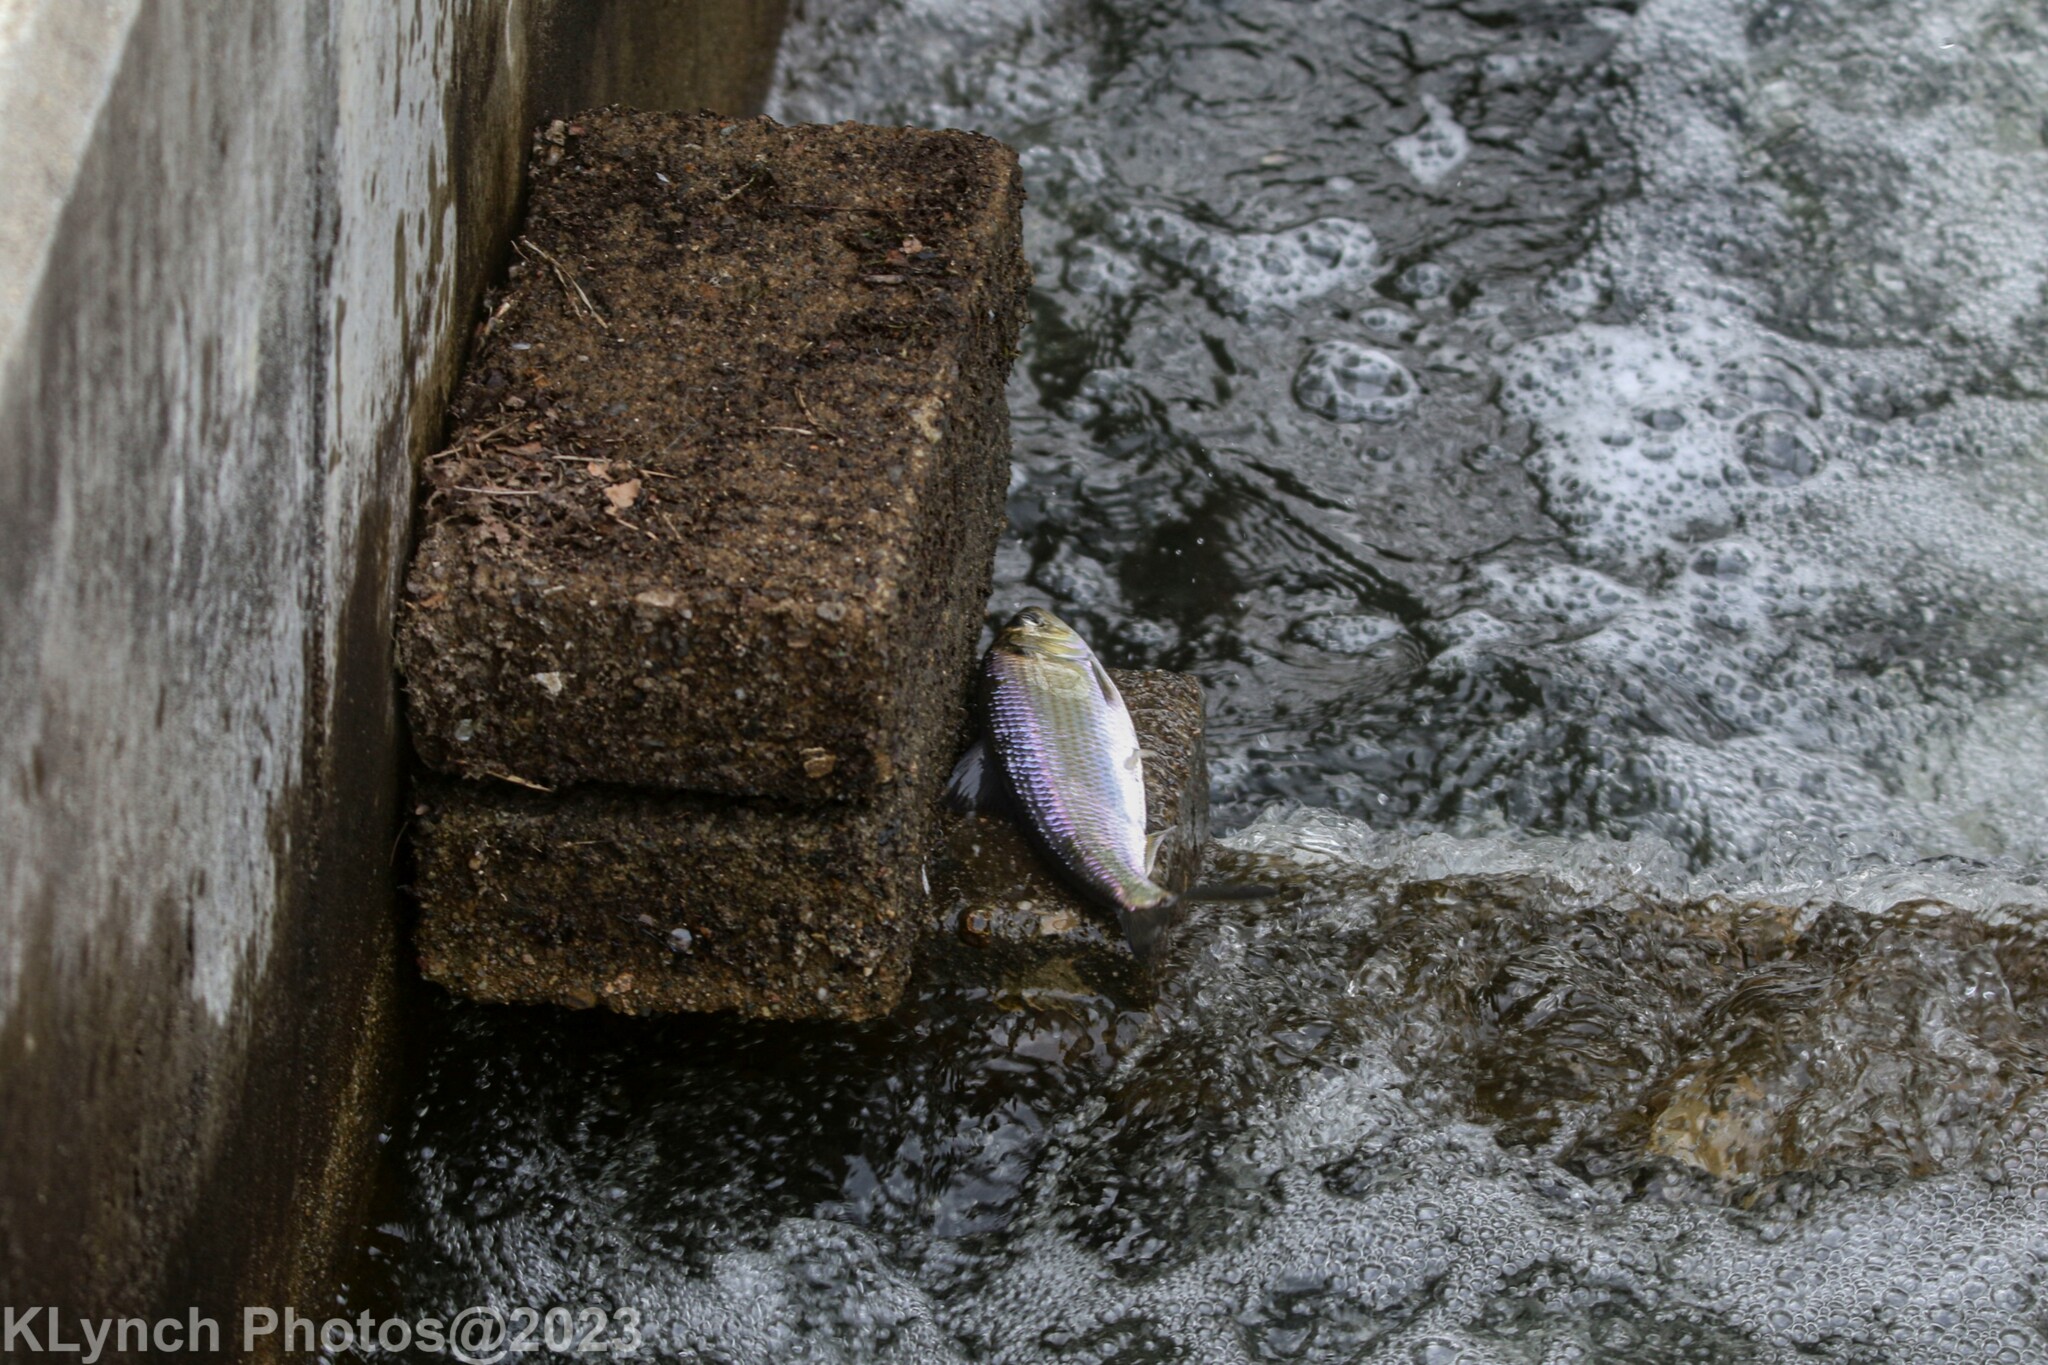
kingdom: Animalia
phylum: Chordata
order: Clupeiformes
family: Clupeidae
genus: Alosa
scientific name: Alosa pseudoharengus
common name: Alewife
